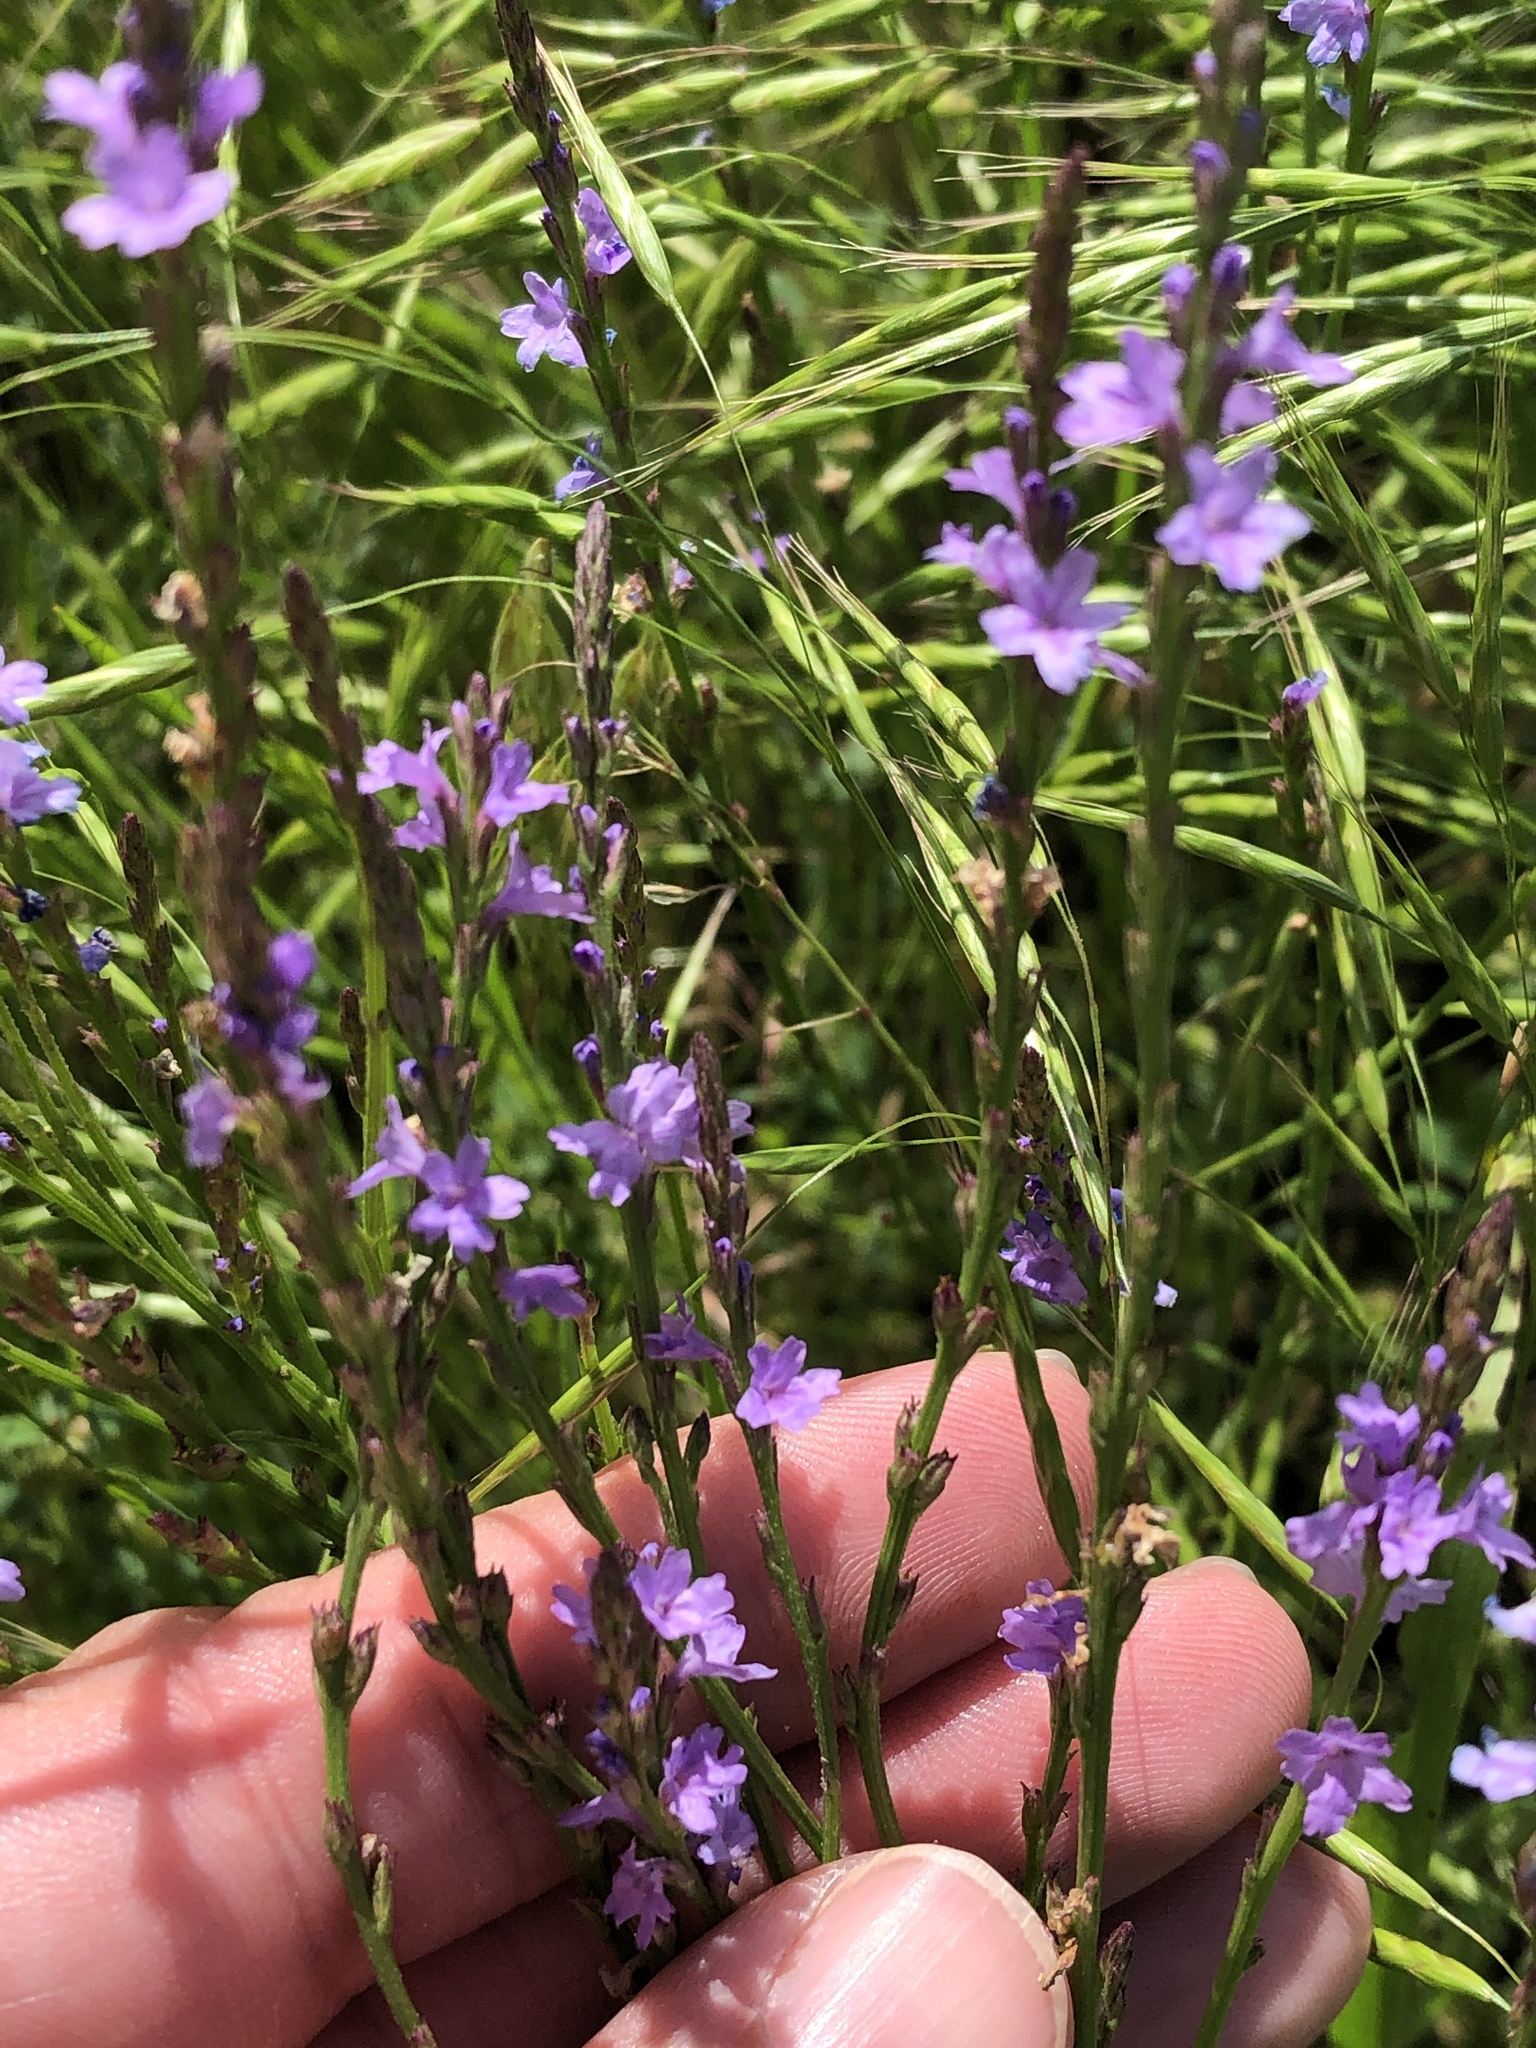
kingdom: Plantae
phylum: Tracheophyta
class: Magnoliopsida
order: Lamiales
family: Verbenaceae
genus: Verbena
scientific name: Verbena halei
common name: Texas vervain
